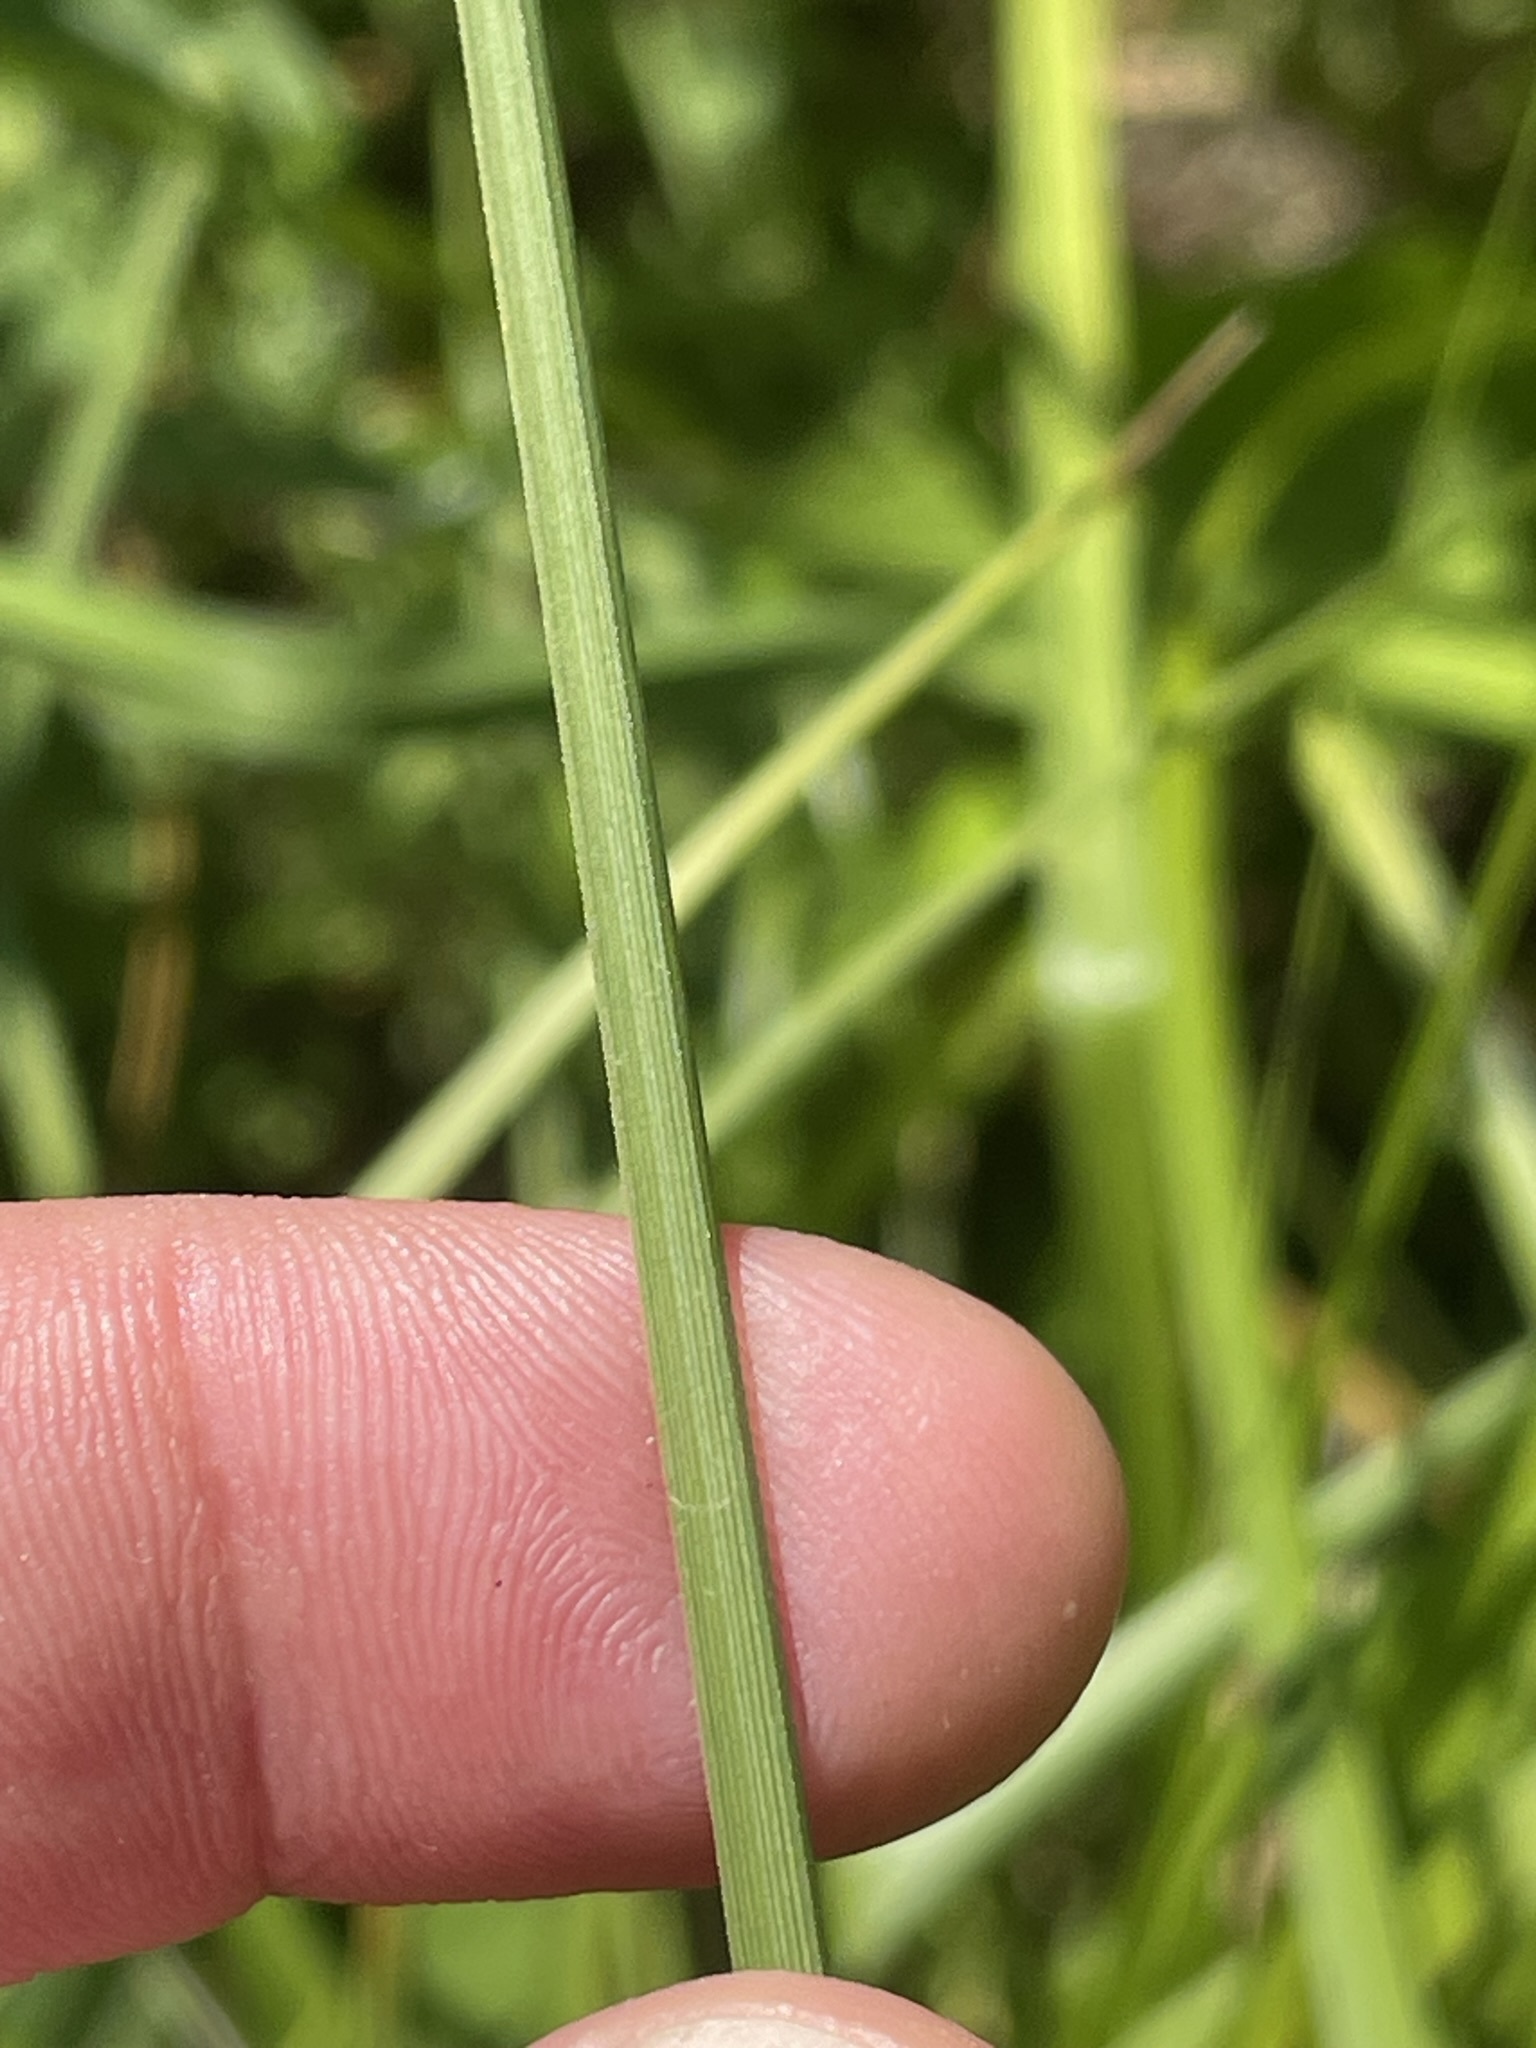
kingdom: Plantae
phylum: Tracheophyta
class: Liliopsida
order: Poales
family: Cyperaceae
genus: Carex
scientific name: Carex paniculata
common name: Greater tussock-sedge
